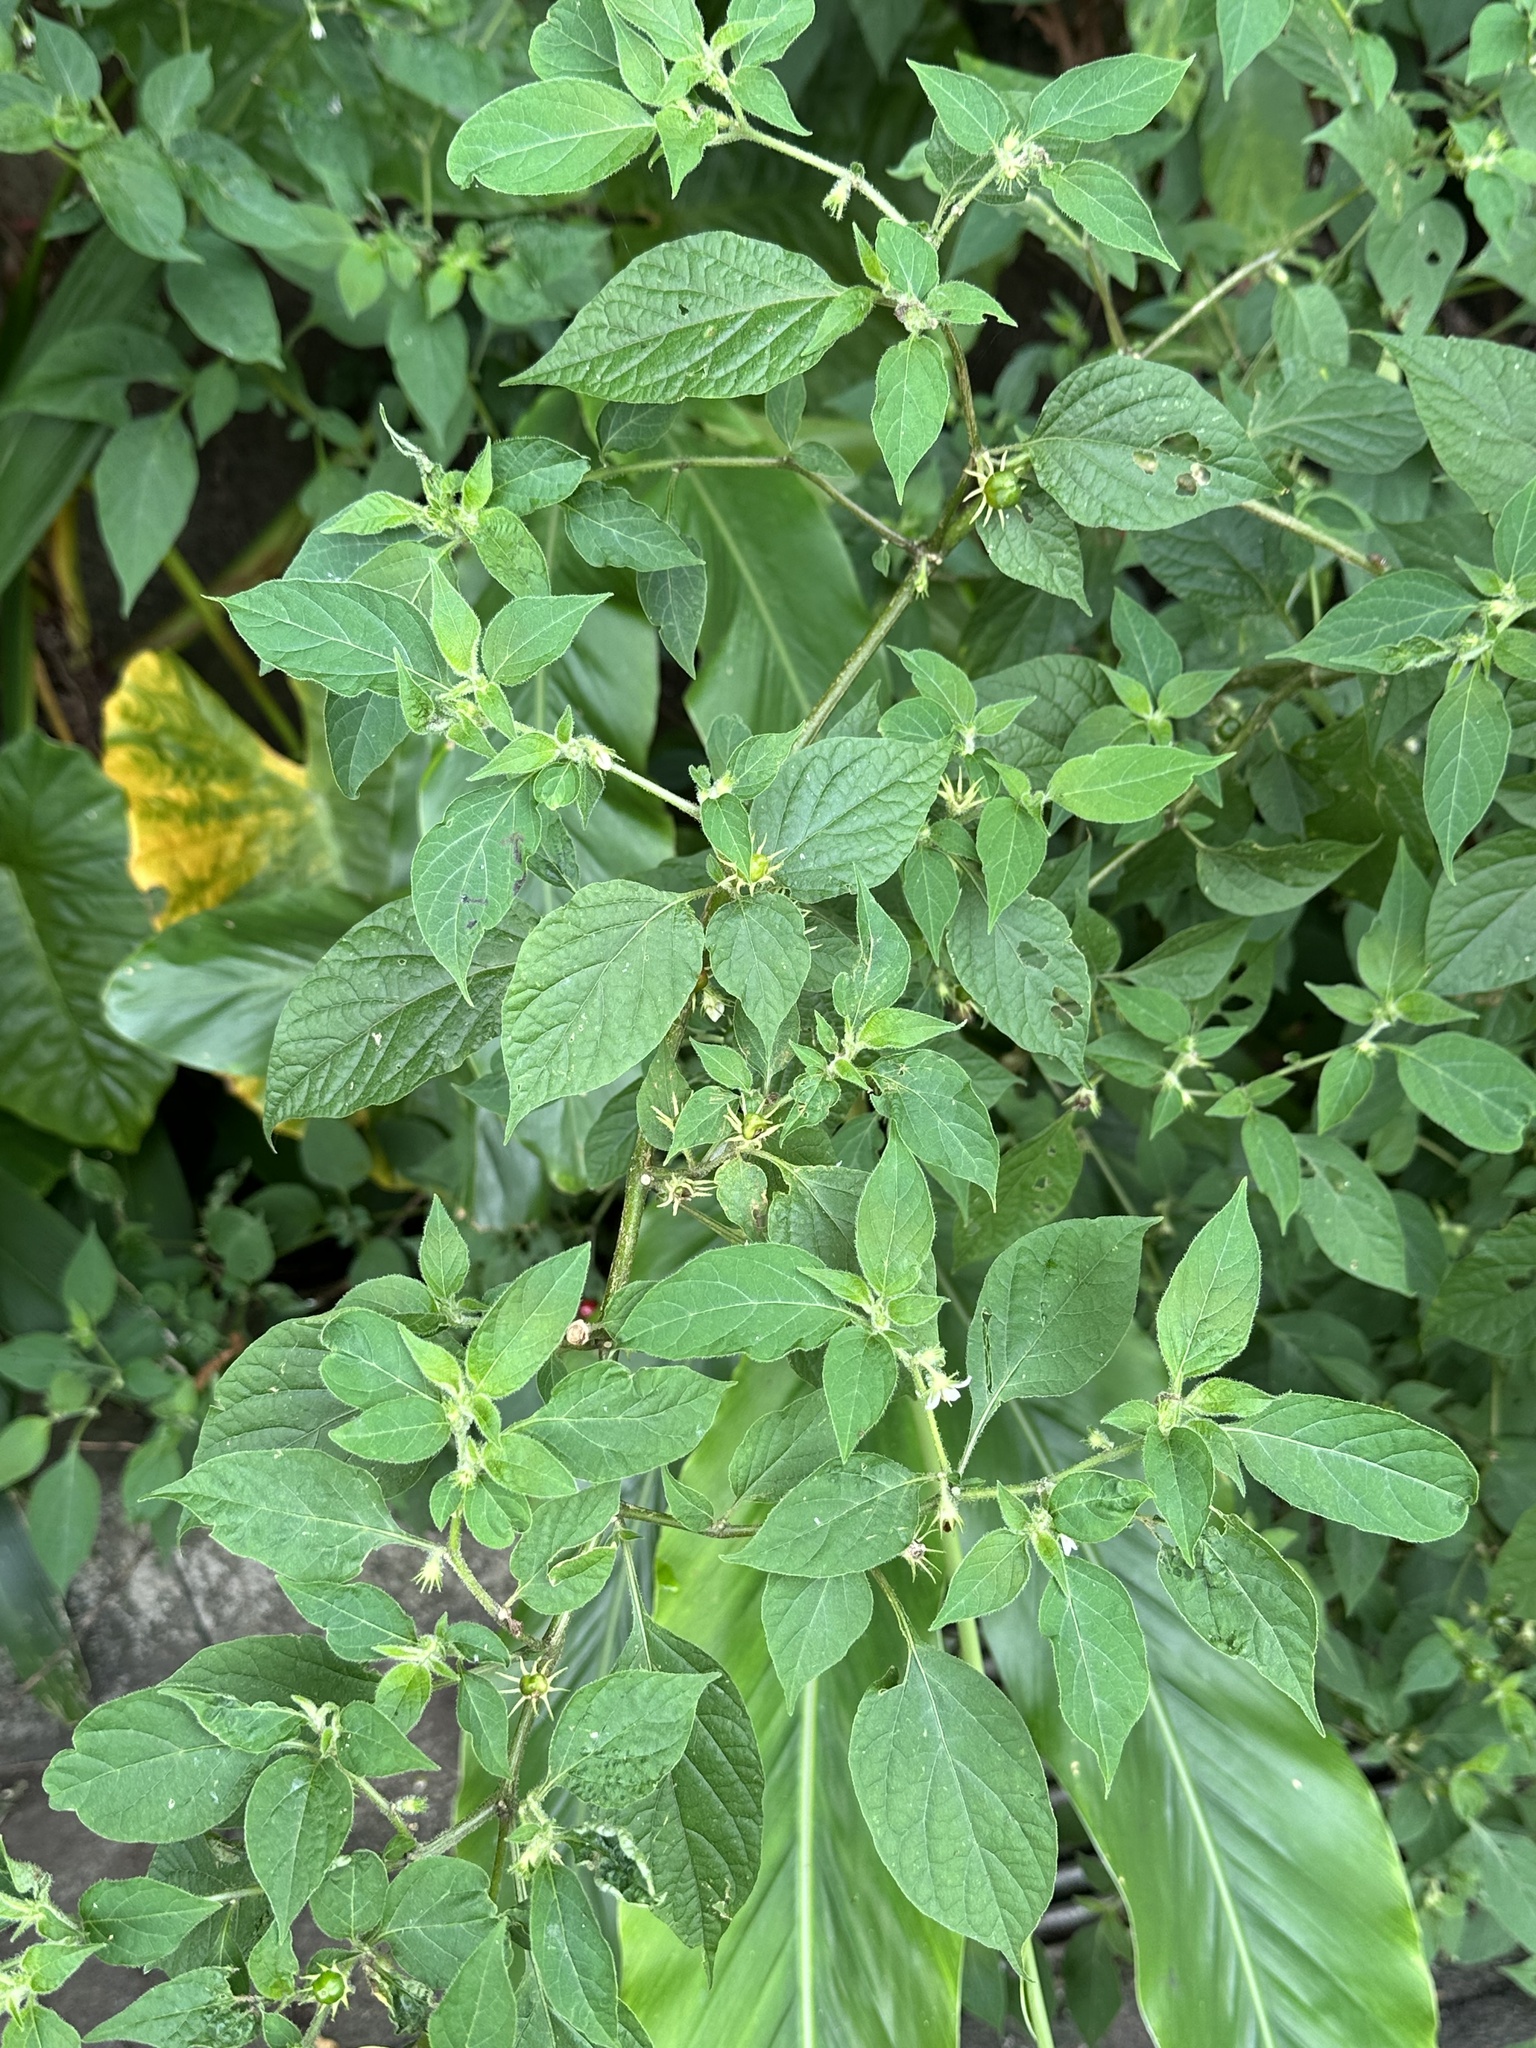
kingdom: Plantae
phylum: Tracheophyta
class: Magnoliopsida
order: Solanales
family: Solanaceae
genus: Lycianthes
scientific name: Lycianthes biflora
